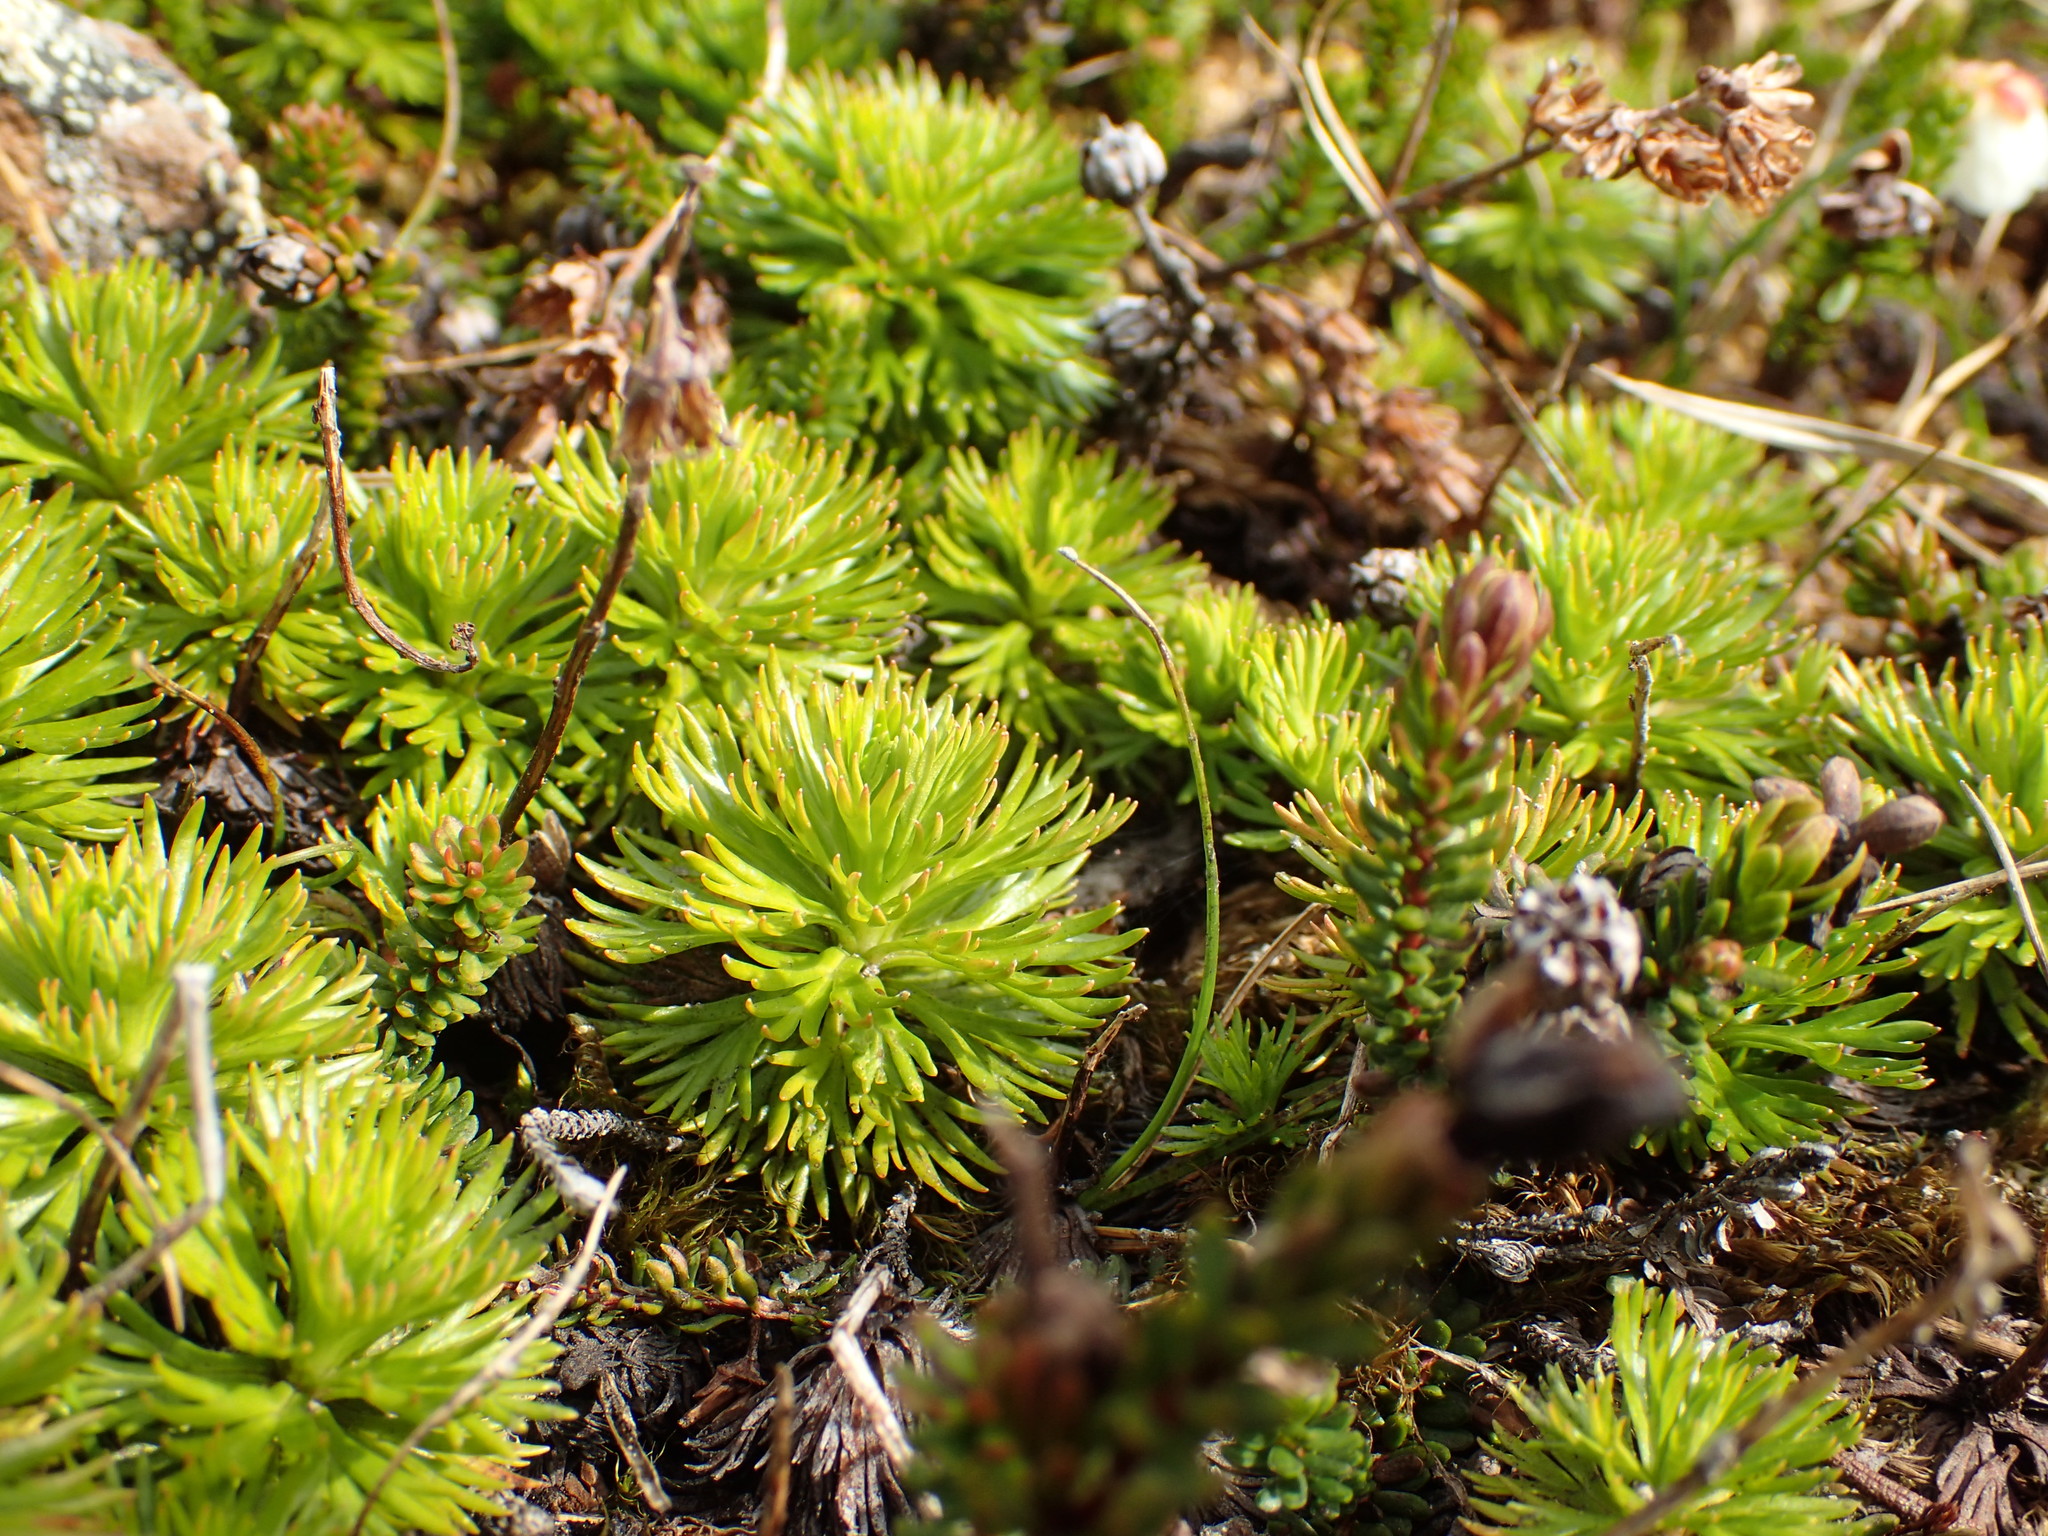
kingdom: Plantae
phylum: Tracheophyta
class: Magnoliopsida
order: Rosales
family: Rosaceae
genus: Luetkea
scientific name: Luetkea pectinata
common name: Partridgefoot
